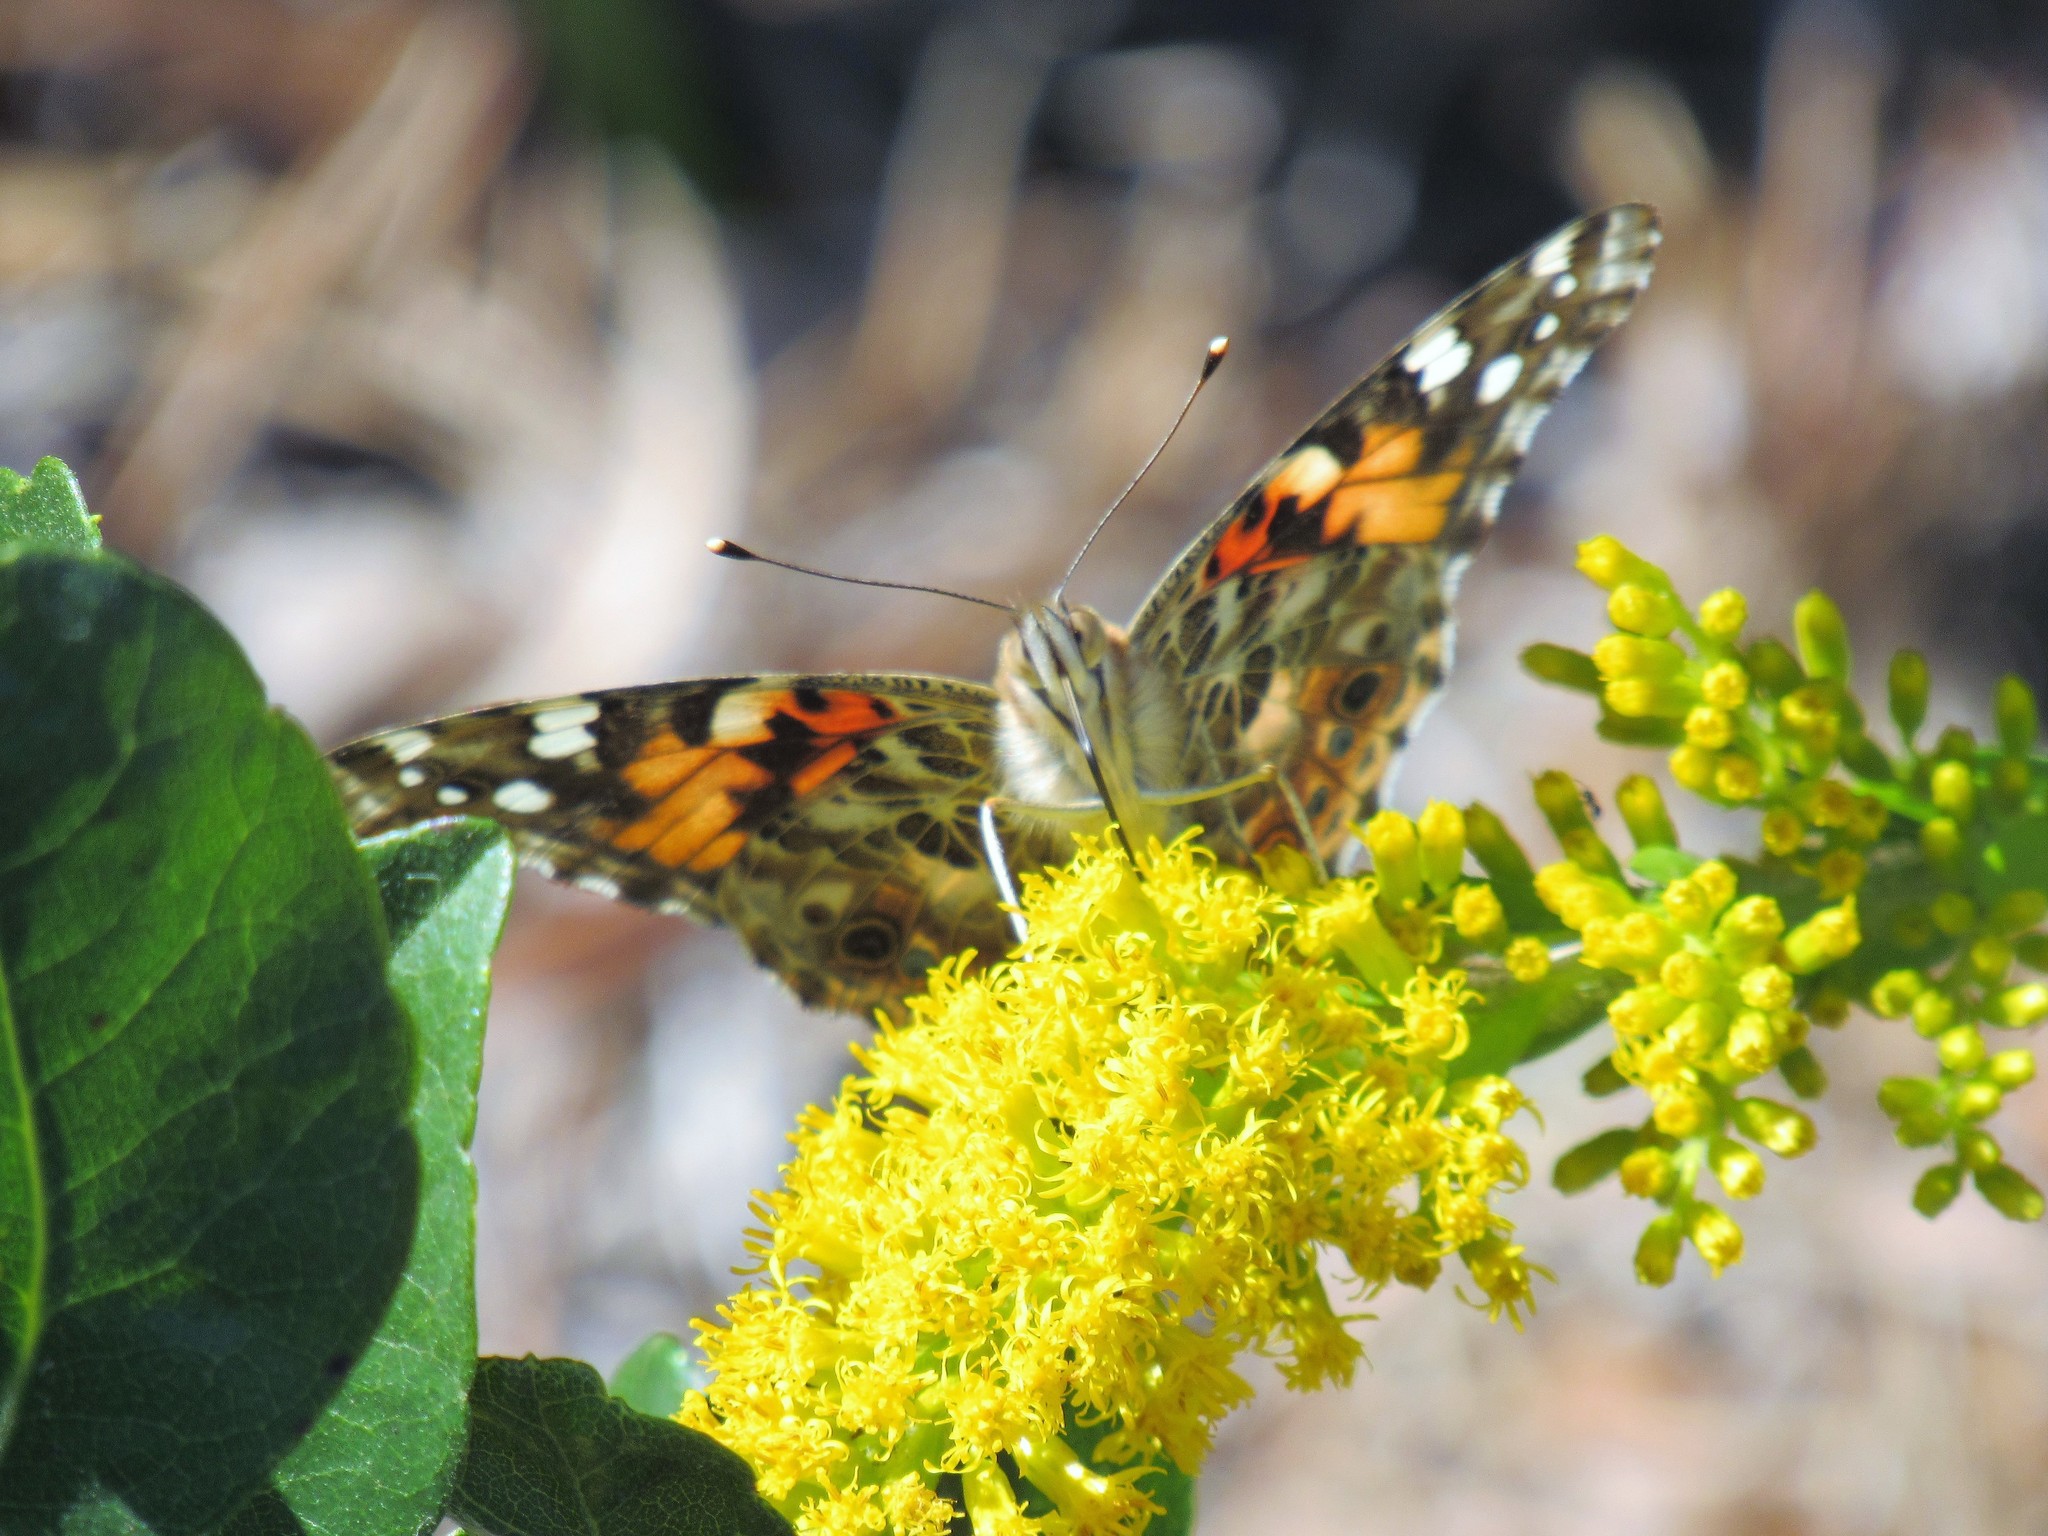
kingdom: Animalia
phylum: Arthropoda
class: Insecta
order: Lepidoptera
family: Nymphalidae
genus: Vanessa
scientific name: Vanessa cardui
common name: Painted lady
